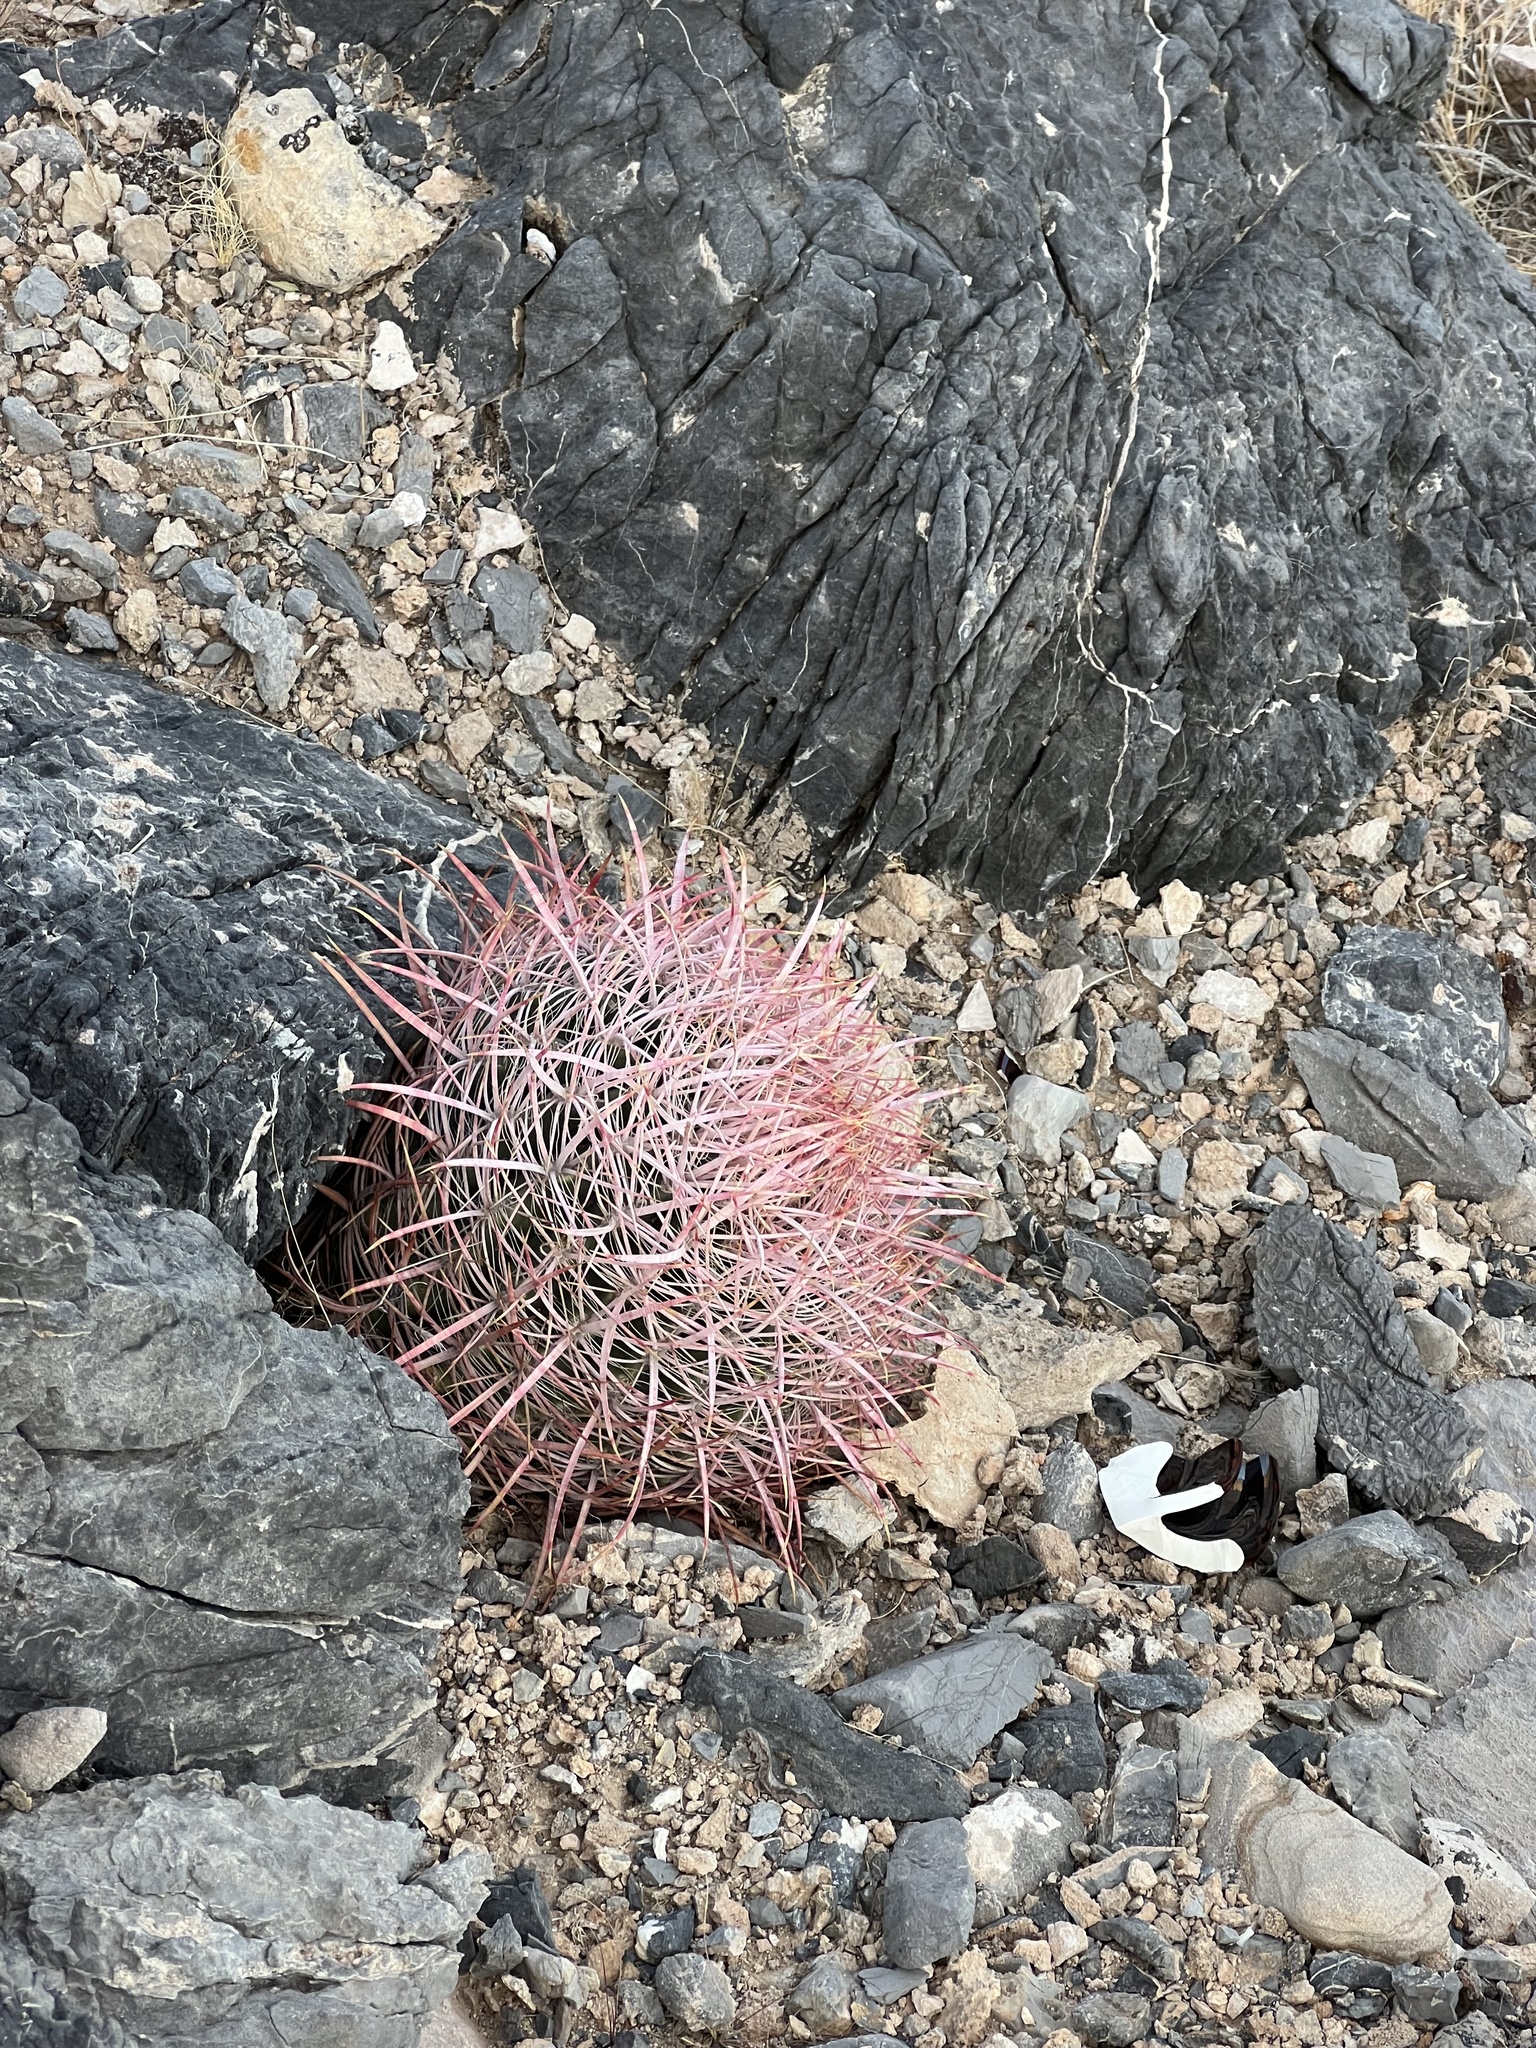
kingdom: Plantae
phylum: Tracheophyta
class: Magnoliopsida
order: Caryophyllales
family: Cactaceae
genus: Ferocactus
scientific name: Ferocactus cylindraceus
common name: California barrel cactus
